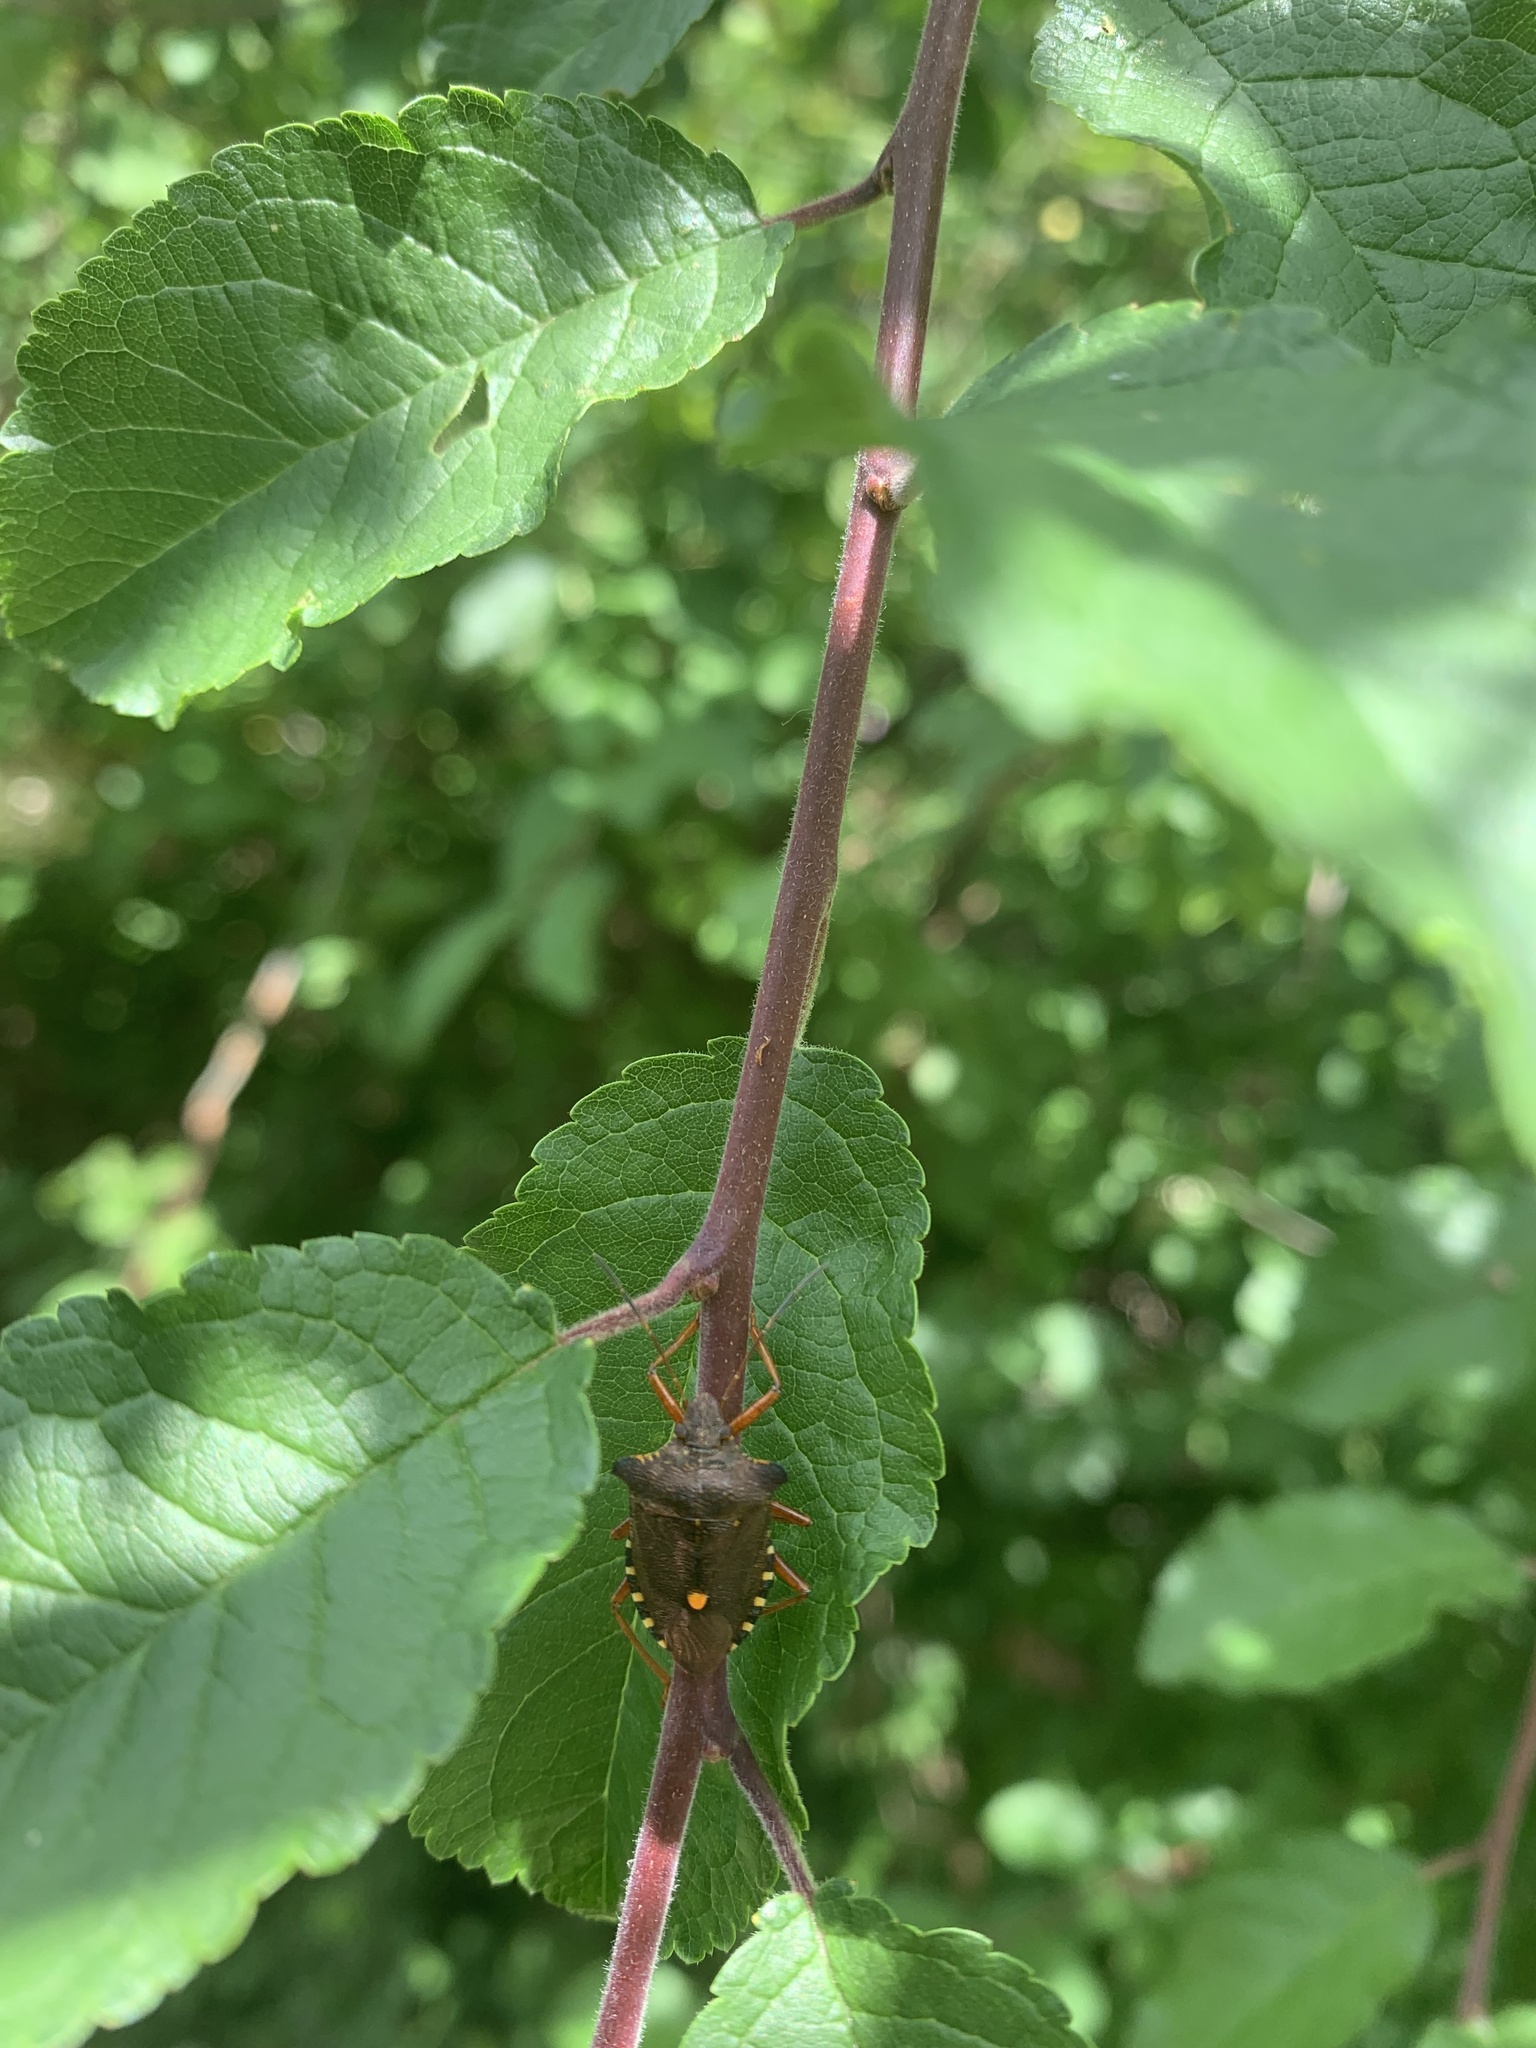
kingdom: Animalia
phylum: Arthropoda
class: Insecta
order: Hemiptera
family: Pentatomidae
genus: Pentatoma
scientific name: Pentatoma rufipes
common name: Forest bug
